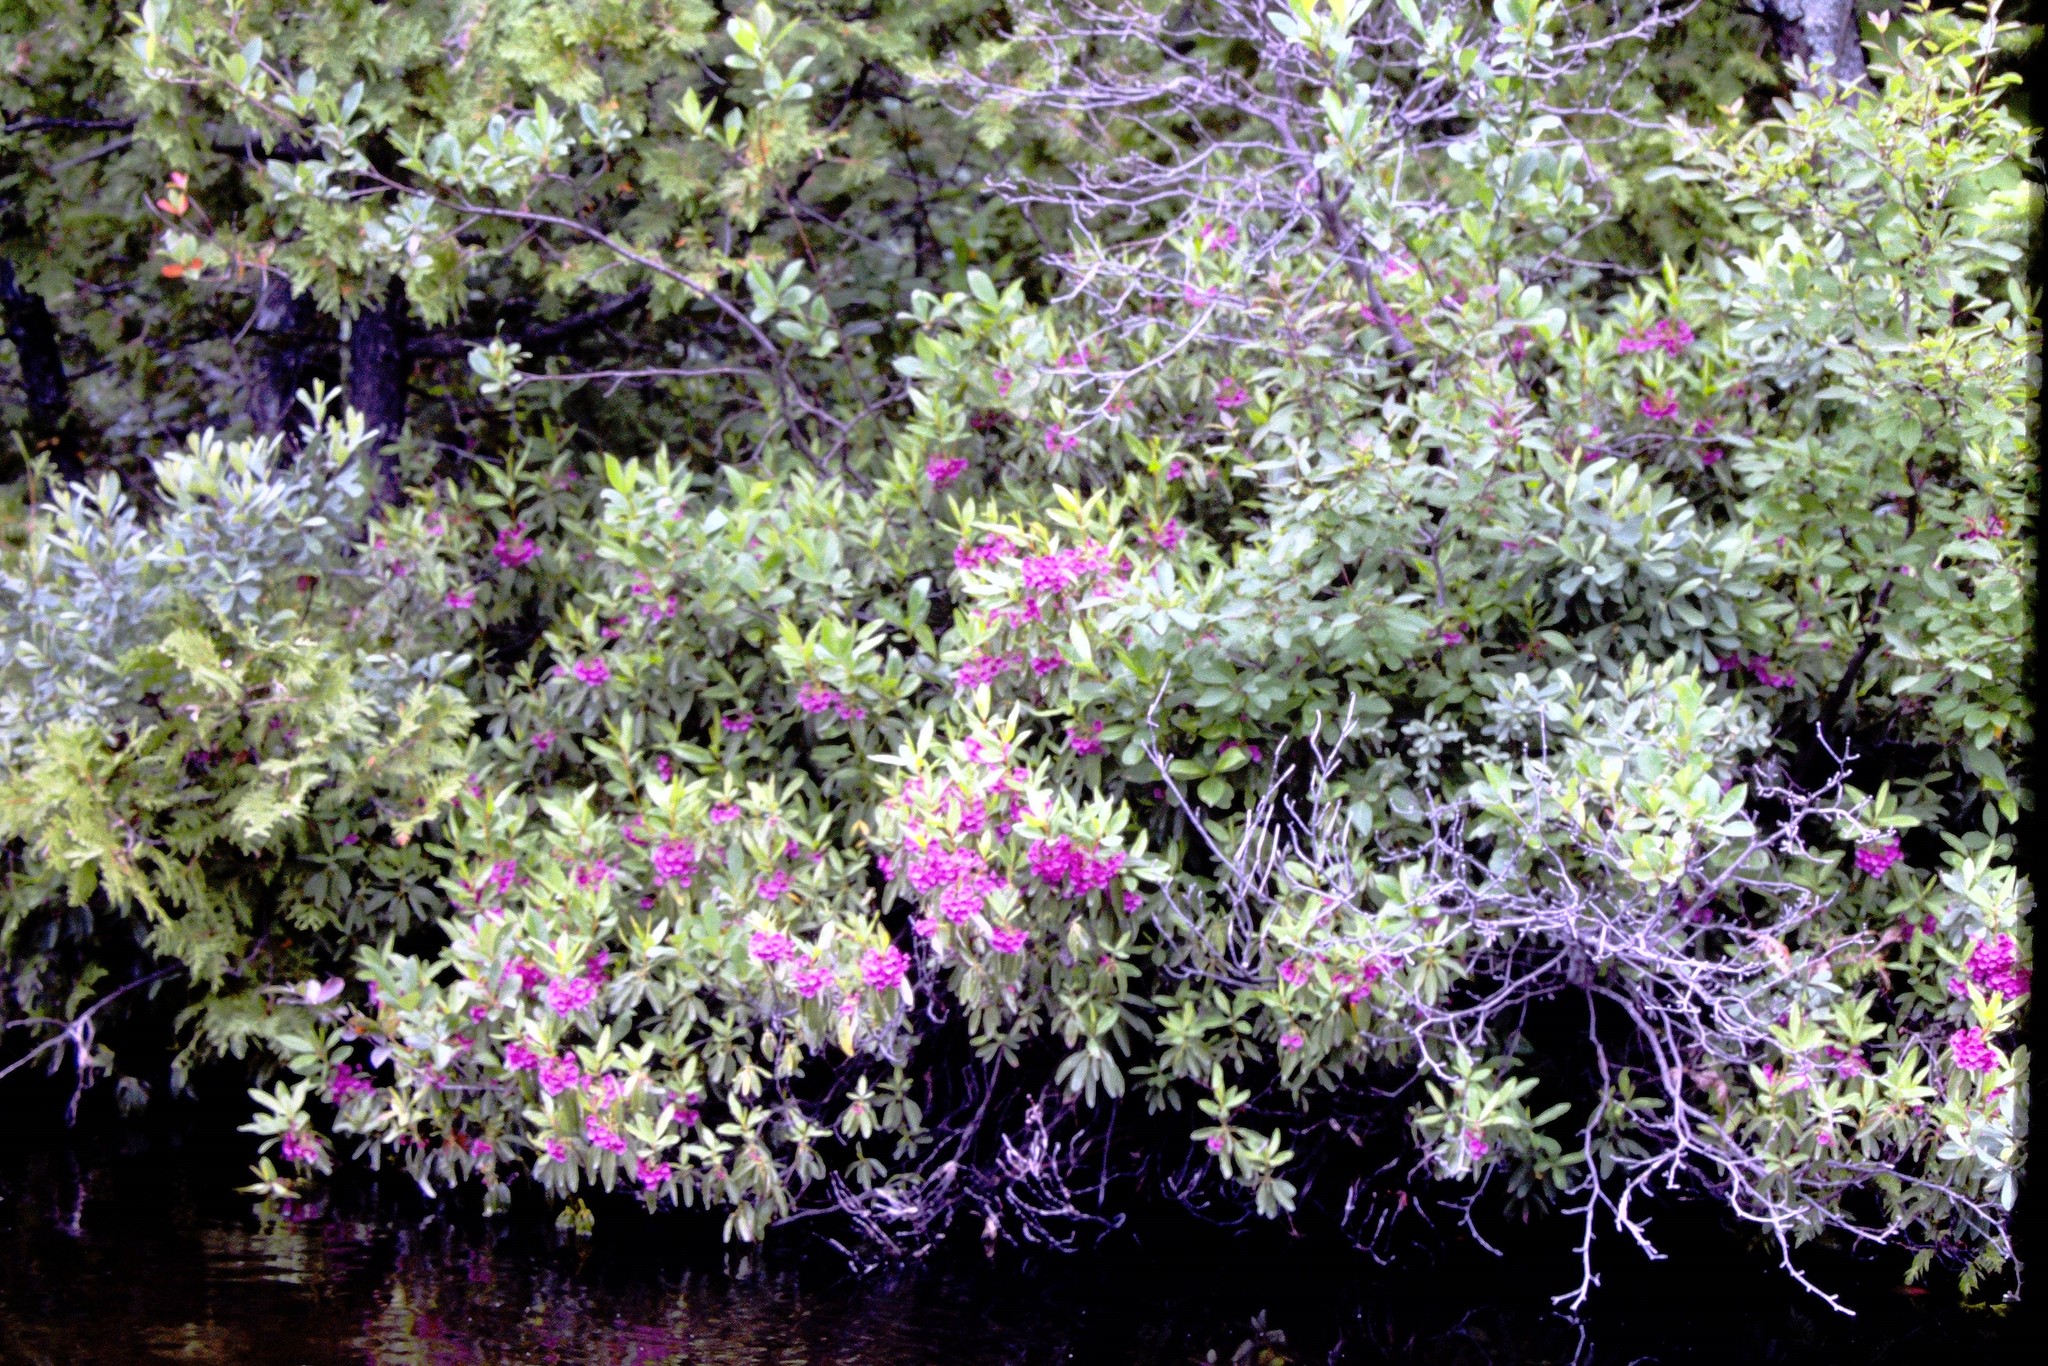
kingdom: Plantae
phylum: Tracheophyta
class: Magnoliopsida
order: Ericales
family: Ericaceae
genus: Kalmia
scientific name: Kalmia angustifolia
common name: Sheep-laurel
